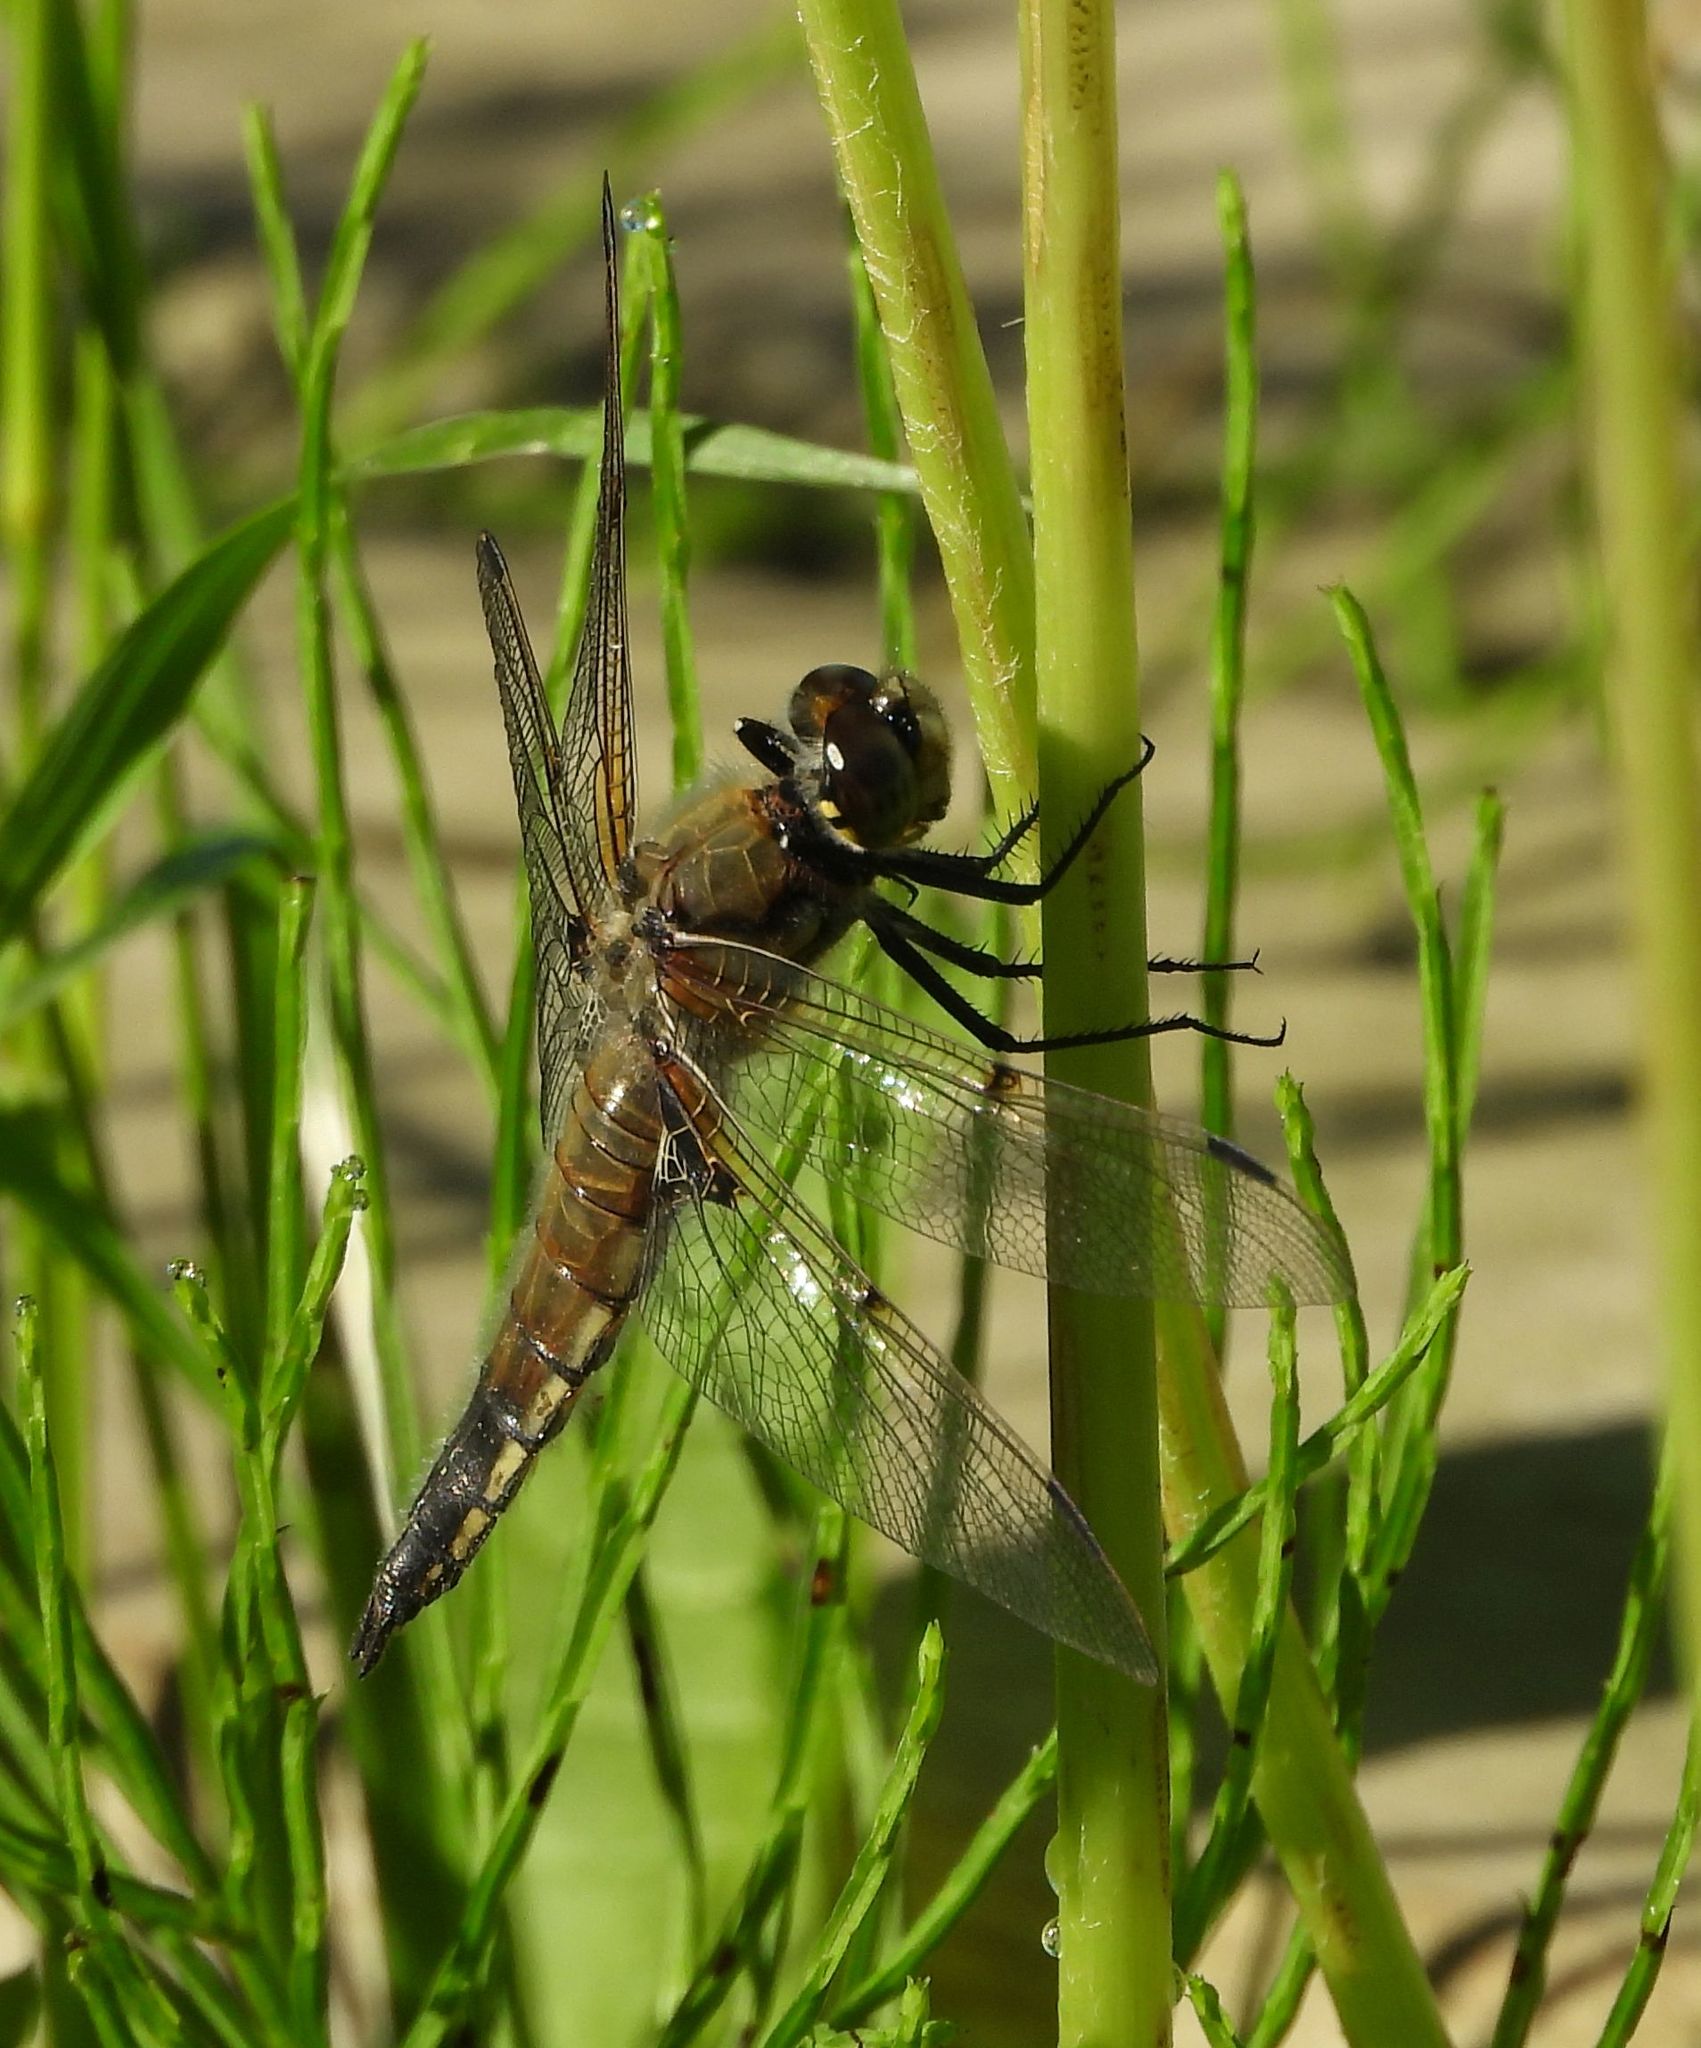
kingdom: Animalia
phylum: Arthropoda
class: Insecta
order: Odonata
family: Libellulidae
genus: Libellula
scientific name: Libellula quadrimaculata
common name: Four-spotted chaser
